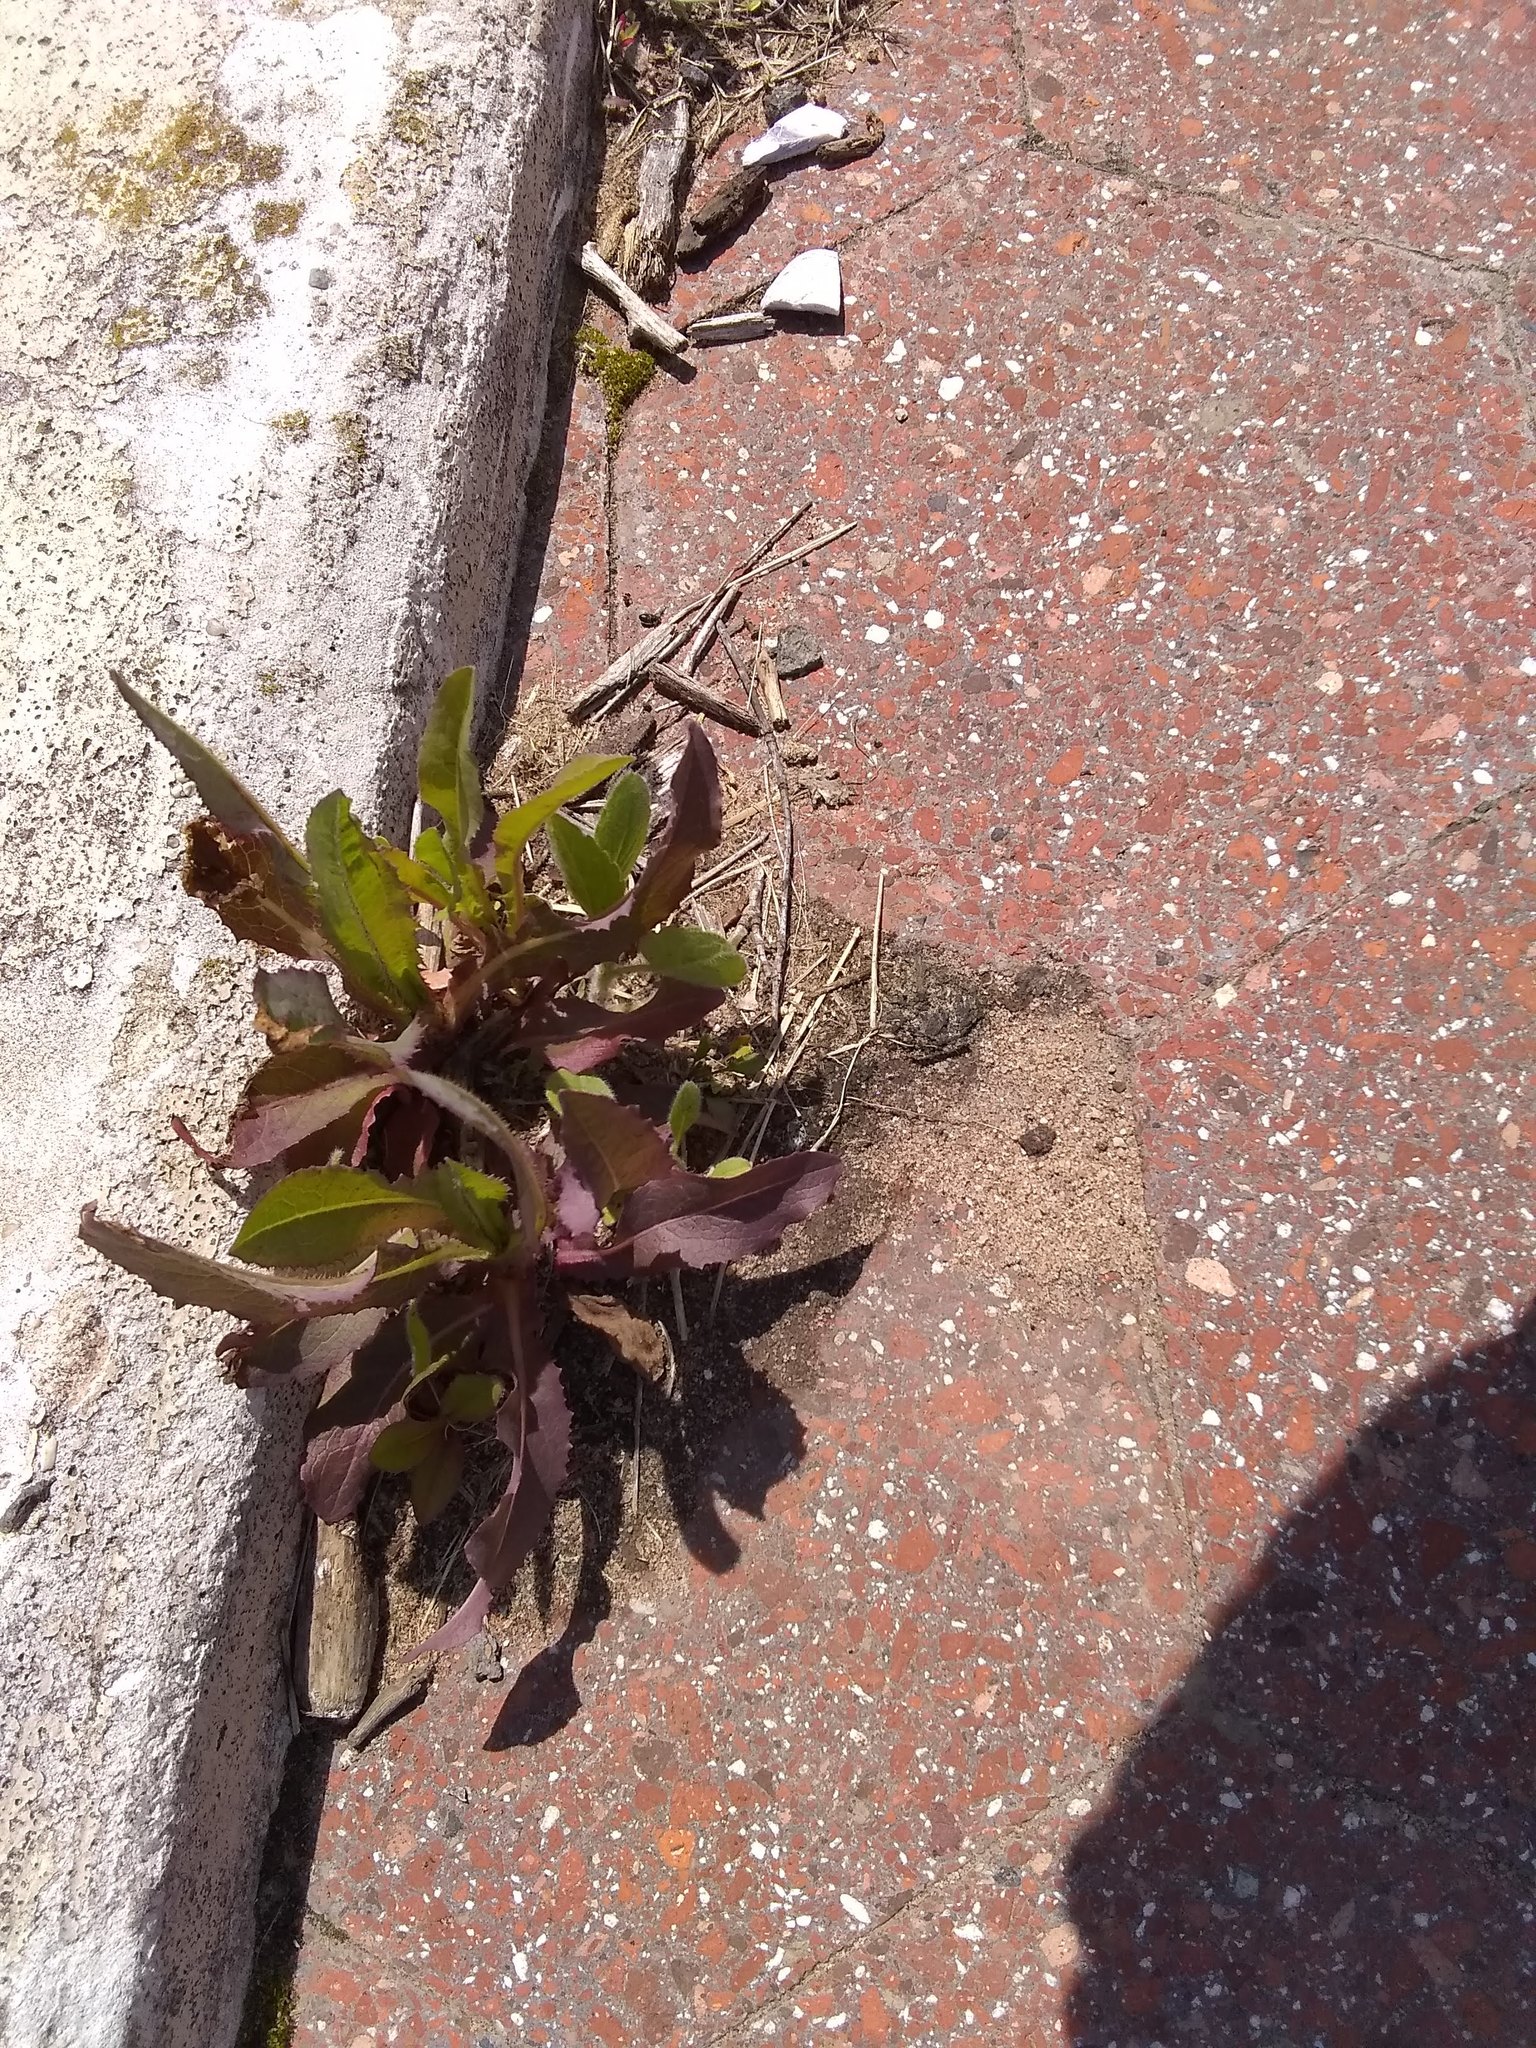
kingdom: Plantae
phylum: Tracheophyta
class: Magnoliopsida
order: Asterales
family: Asteraceae
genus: Lactuca
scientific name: Lactuca serriola
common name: Prickly lettuce
